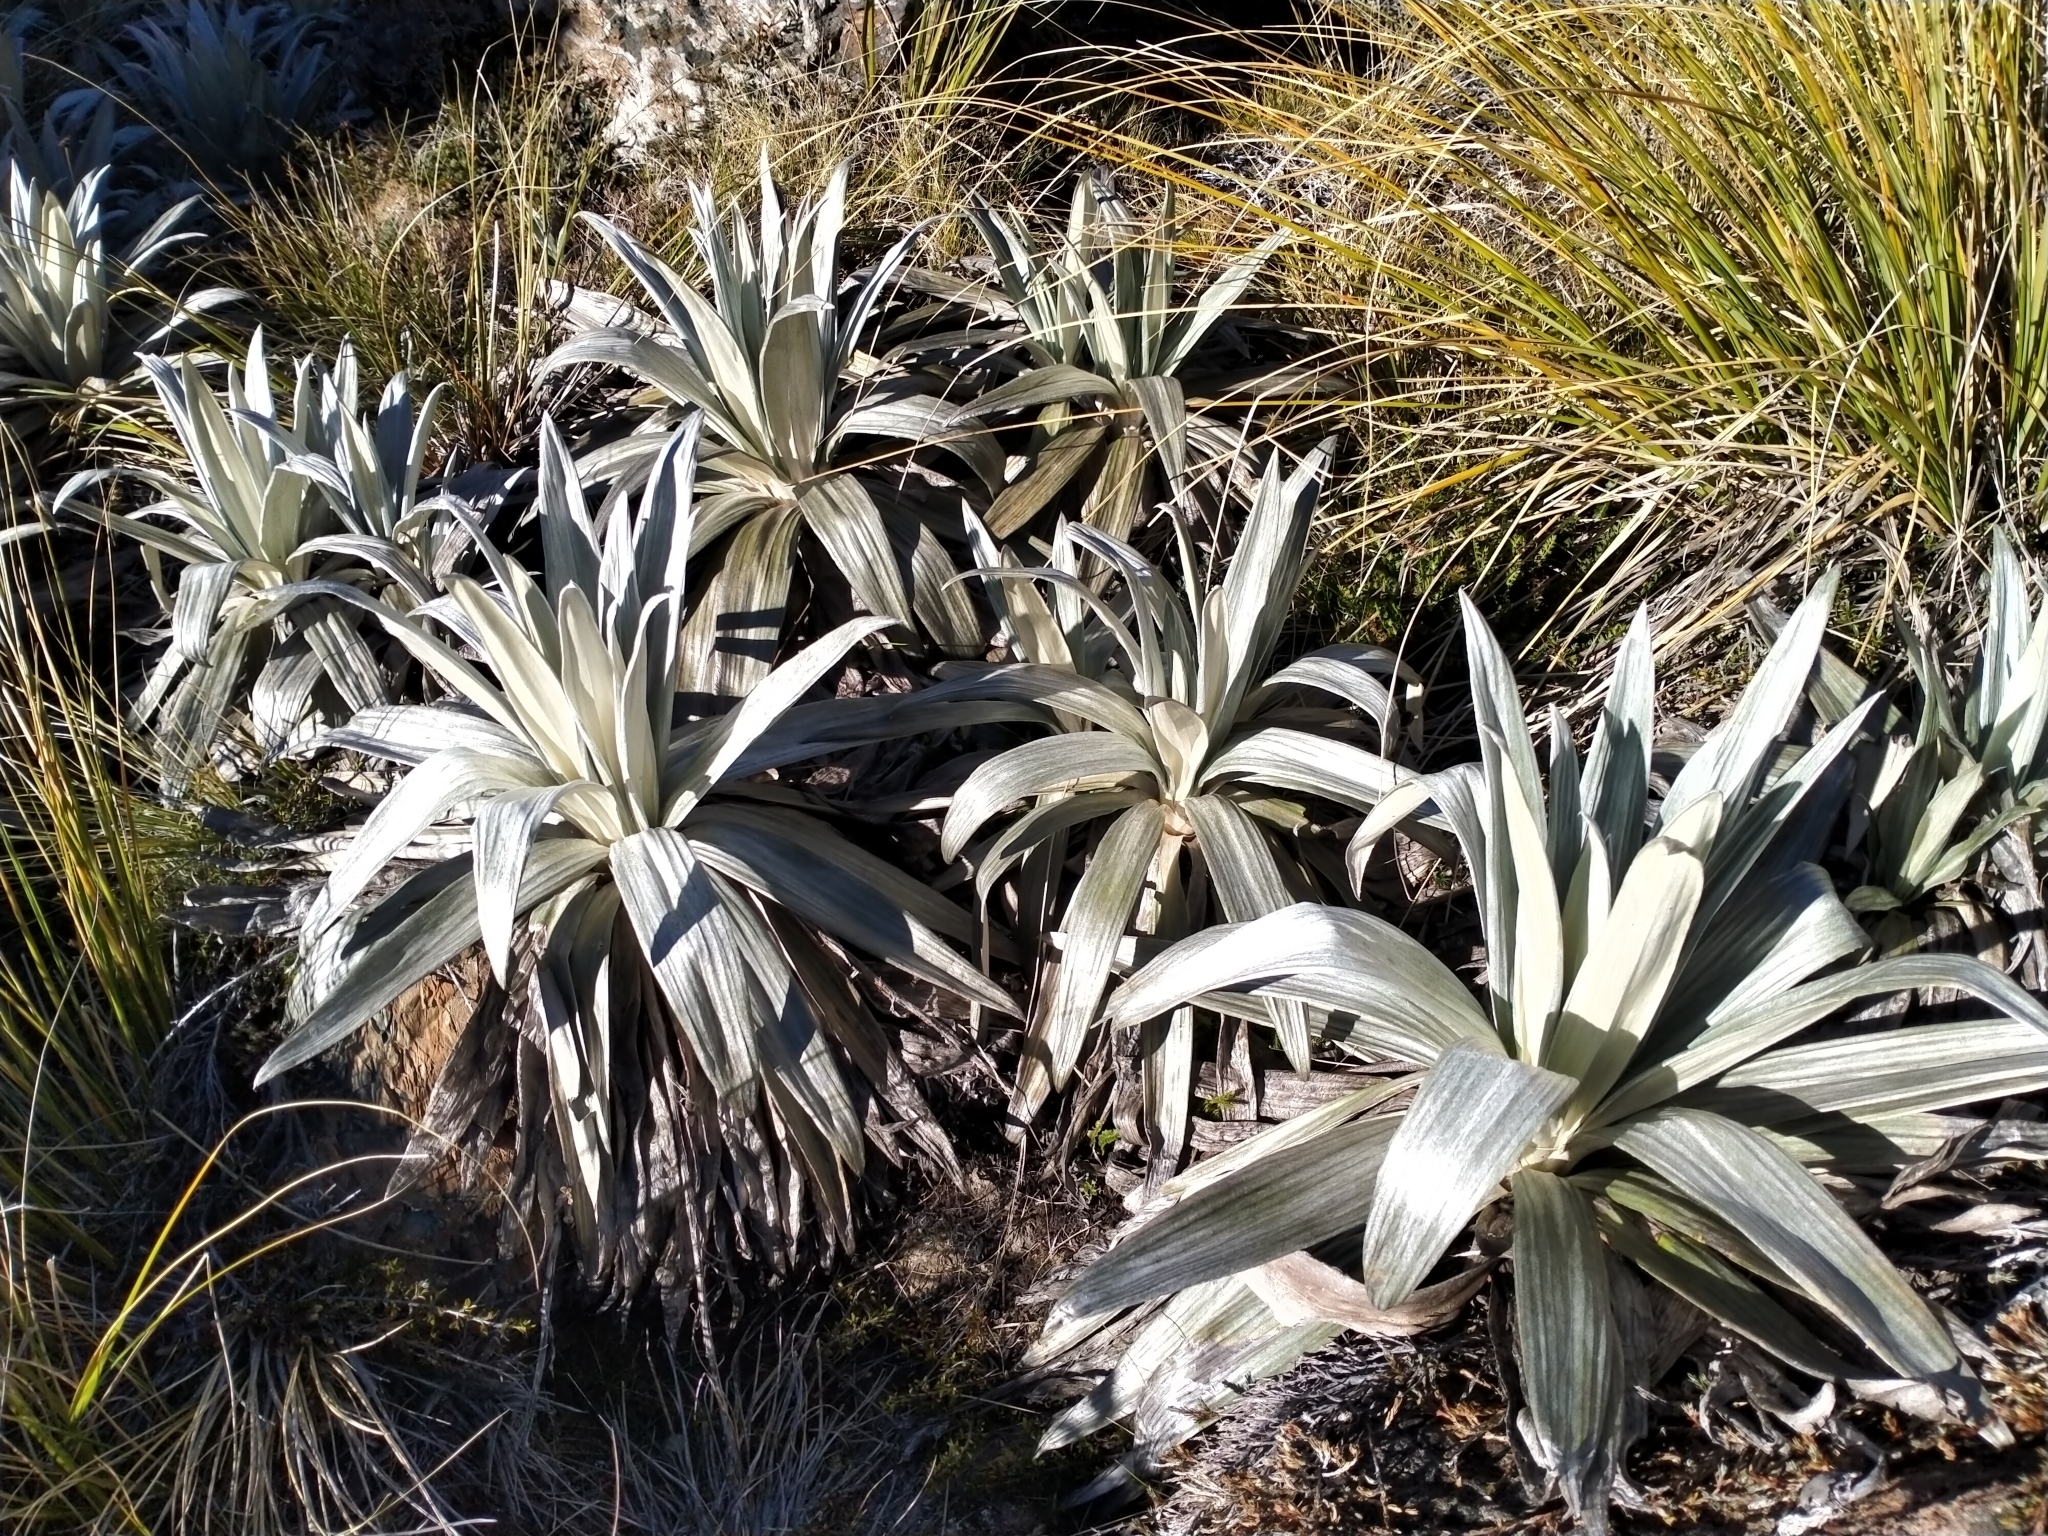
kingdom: Plantae
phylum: Tracheophyta
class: Magnoliopsida
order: Asterales
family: Asteraceae
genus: Celmisia
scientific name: Celmisia semicordata
